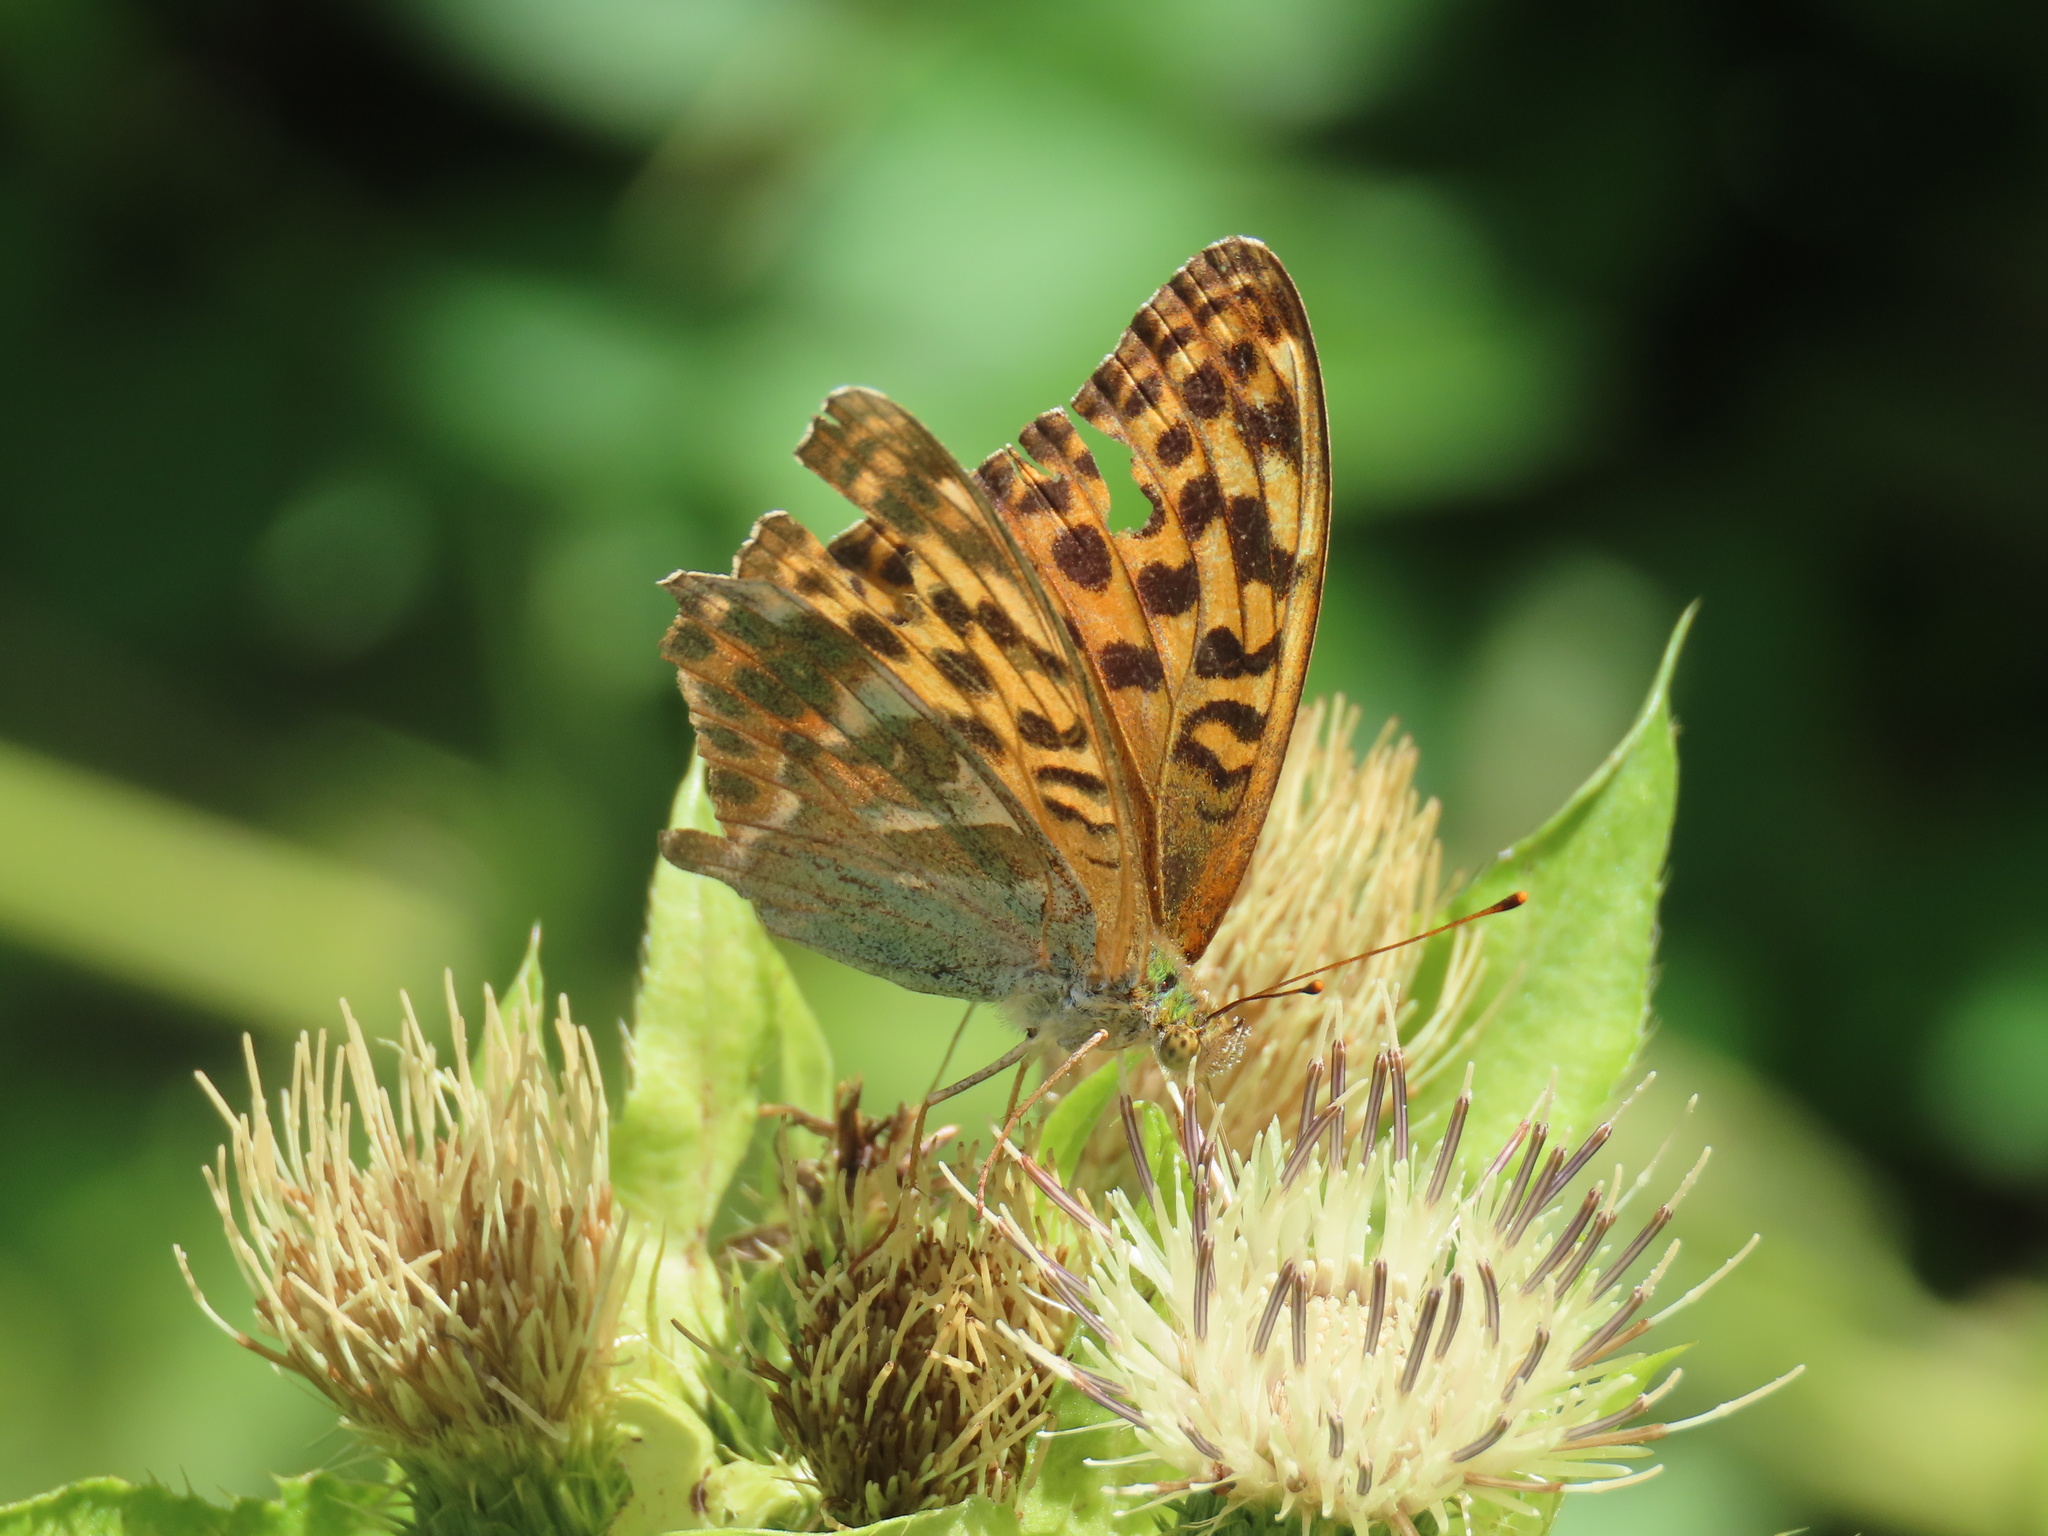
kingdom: Animalia
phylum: Arthropoda
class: Insecta
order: Lepidoptera
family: Nymphalidae
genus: Argynnis
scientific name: Argynnis paphia
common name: Silver-washed fritillary
